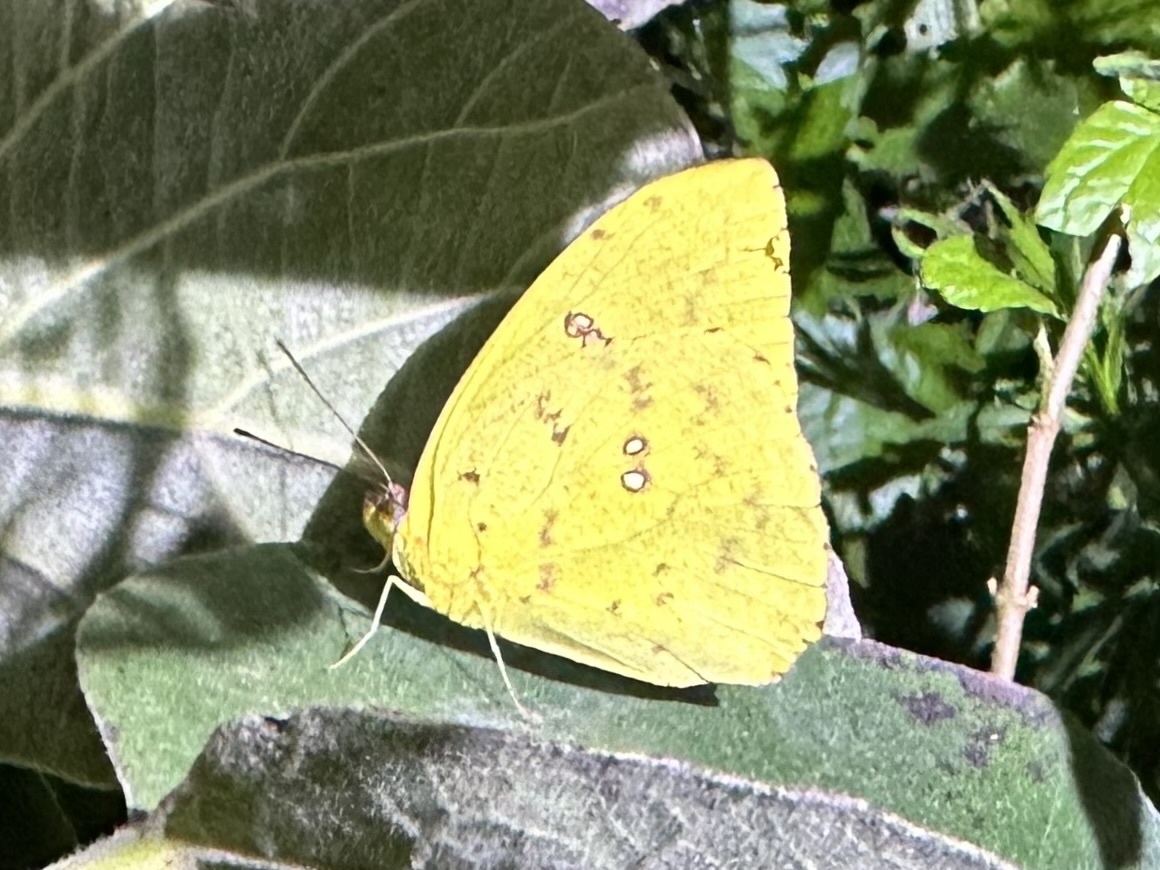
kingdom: Animalia
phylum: Arthropoda
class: Insecta
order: Lepidoptera
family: Pieridae
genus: Phoebis
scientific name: Phoebis sennae
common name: Cloudless sulphur
